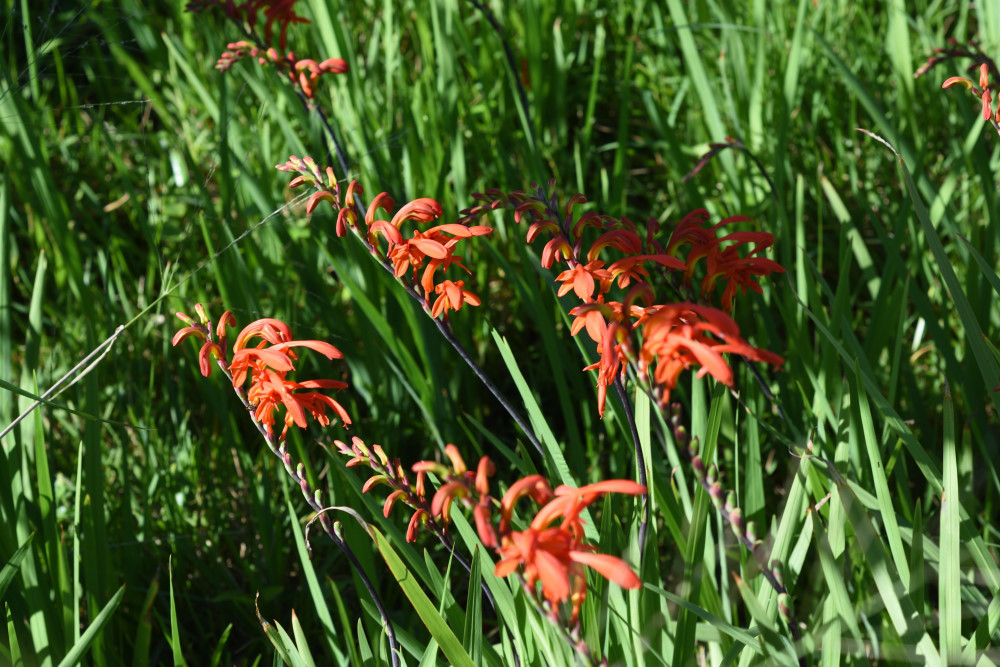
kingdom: Plantae
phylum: Tracheophyta
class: Liliopsida
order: Asparagales
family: Iridaceae
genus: Chasmanthe
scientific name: Chasmanthe aethiopica
